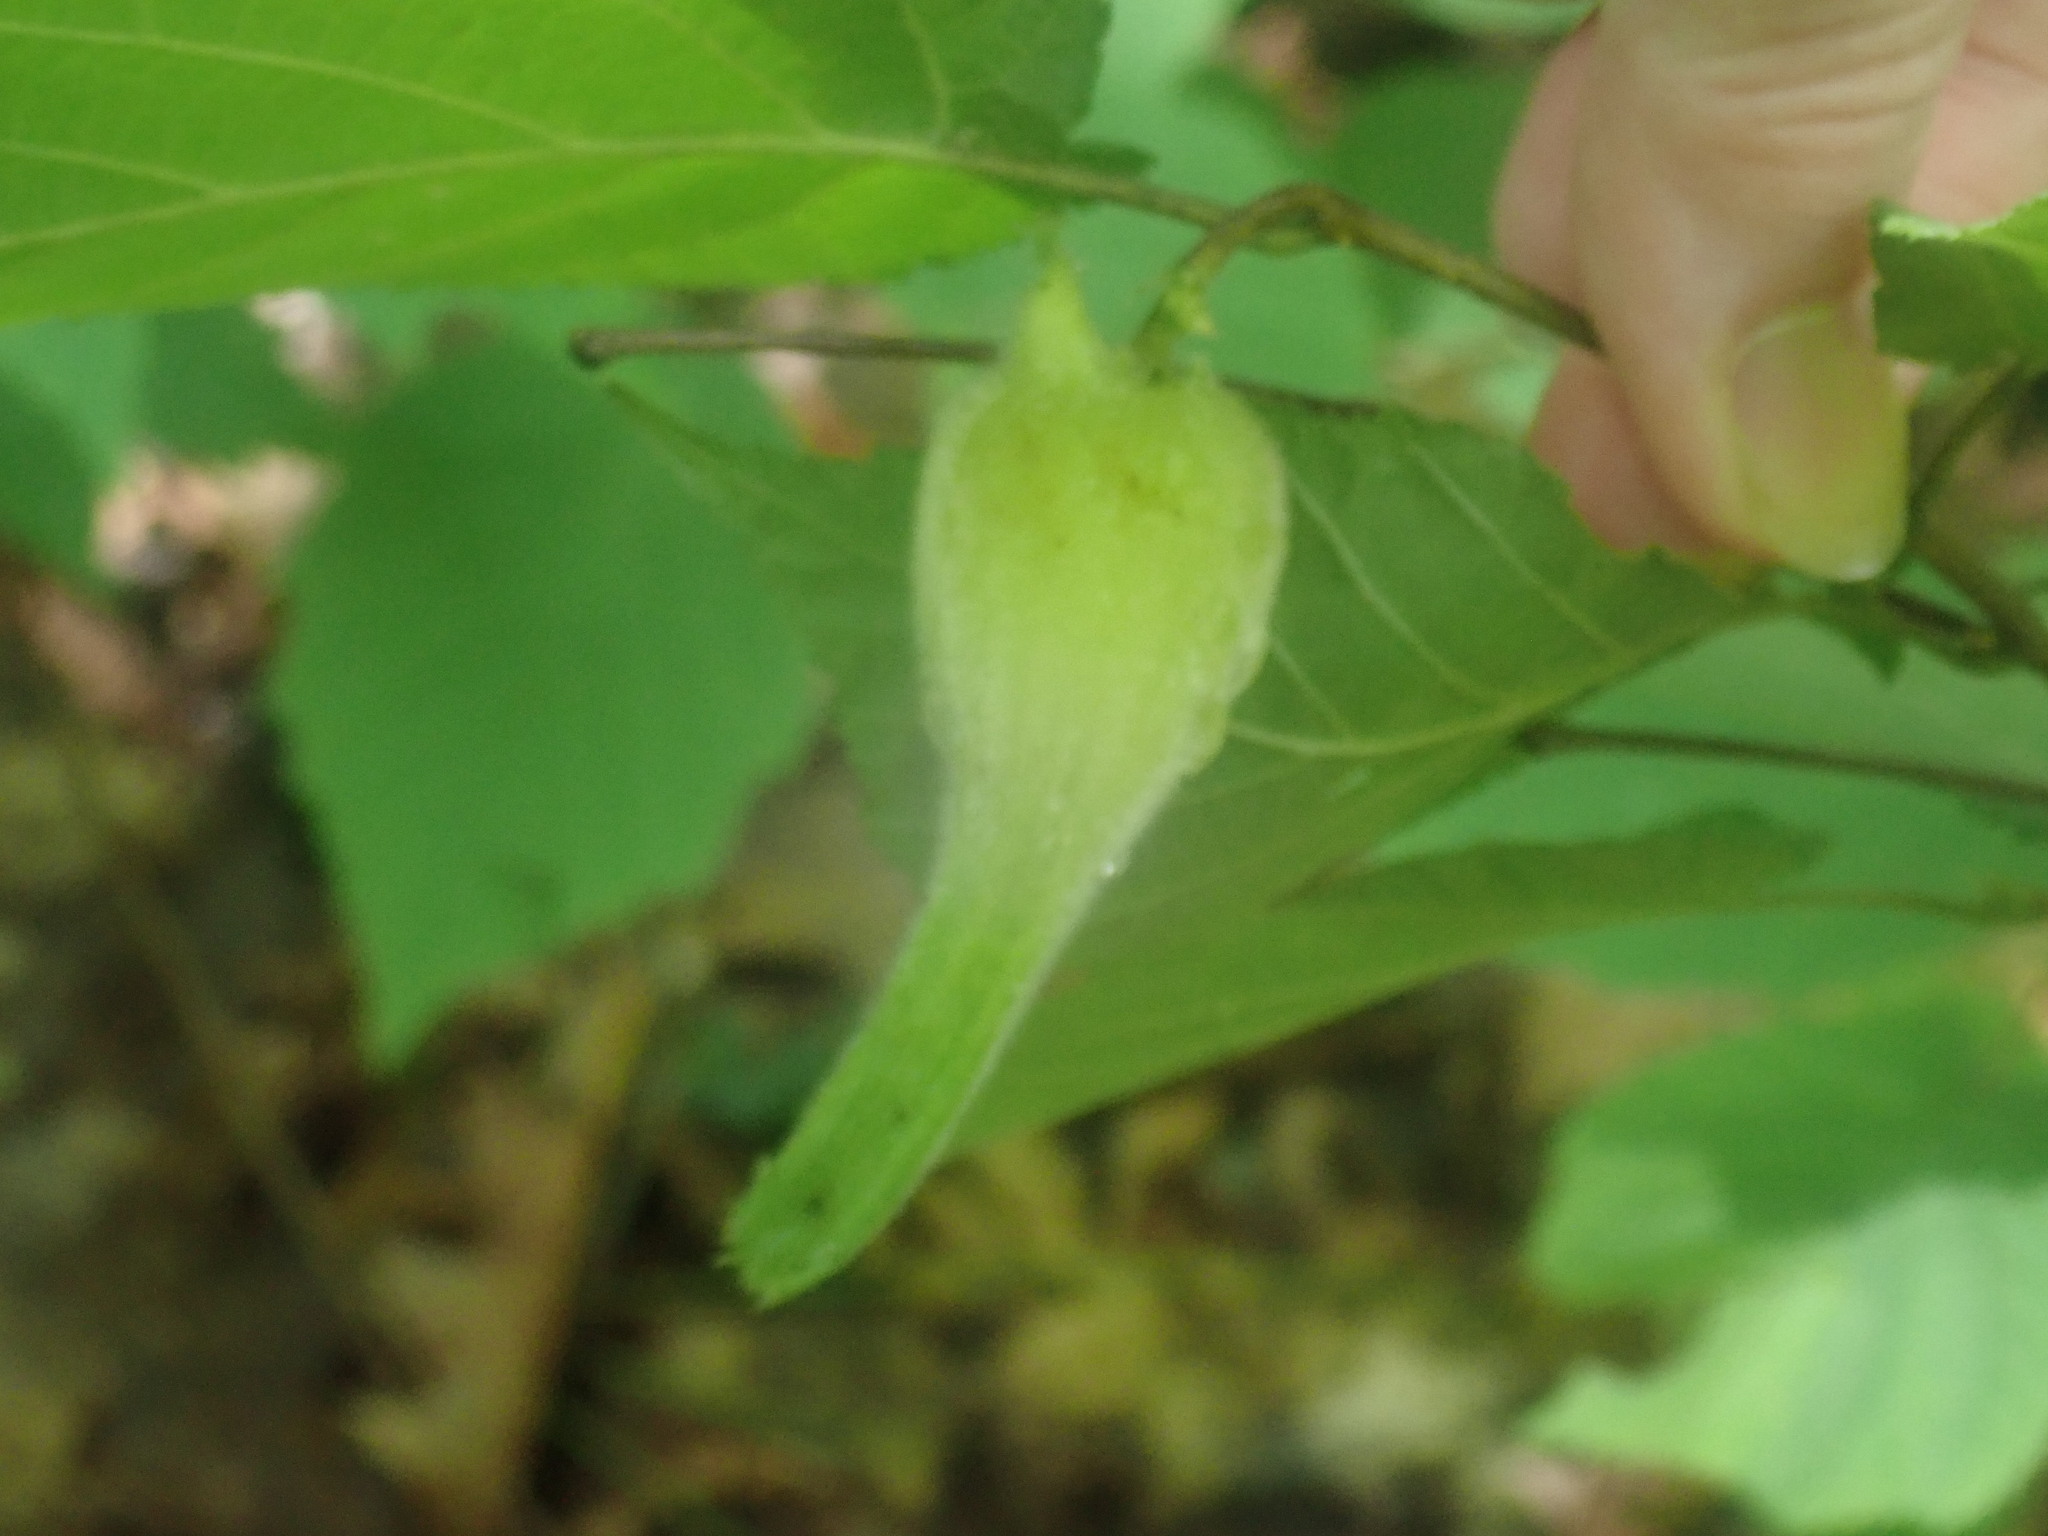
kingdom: Plantae
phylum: Tracheophyta
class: Magnoliopsida
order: Fagales
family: Betulaceae
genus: Corylus
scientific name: Corylus cornuta
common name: Beaked hazel
